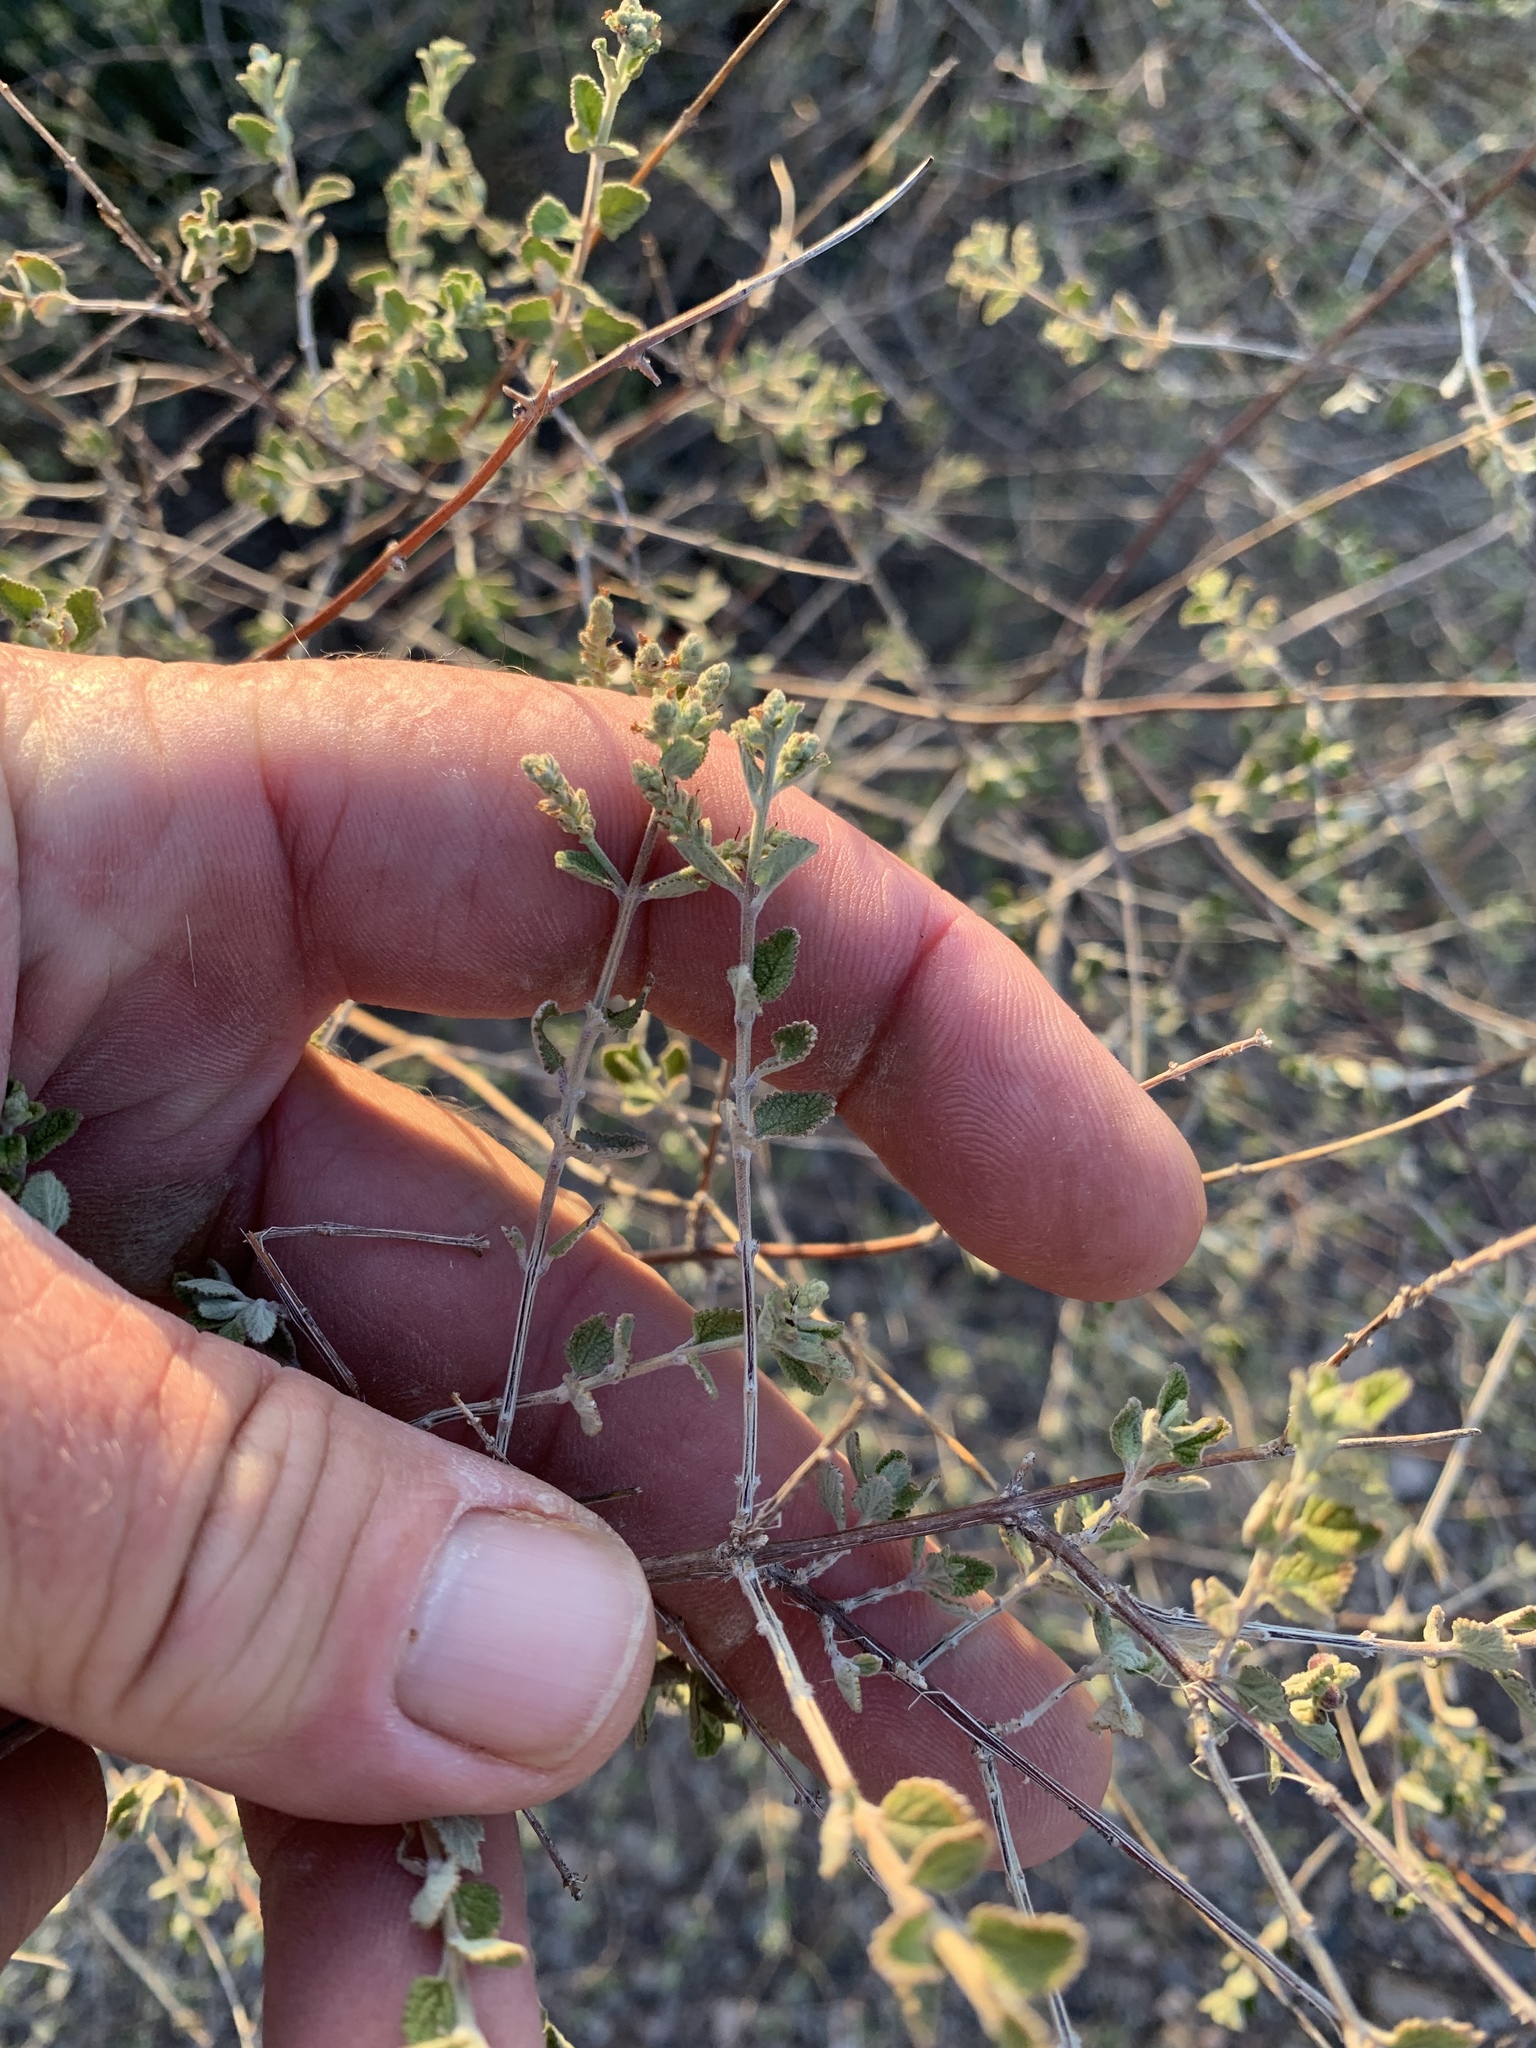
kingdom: Plantae
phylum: Tracheophyta
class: Magnoliopsida
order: Caryophyllales
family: Amaranthaceae
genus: Atriplex
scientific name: Atriplex polycarpa
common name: Desert saltbush
